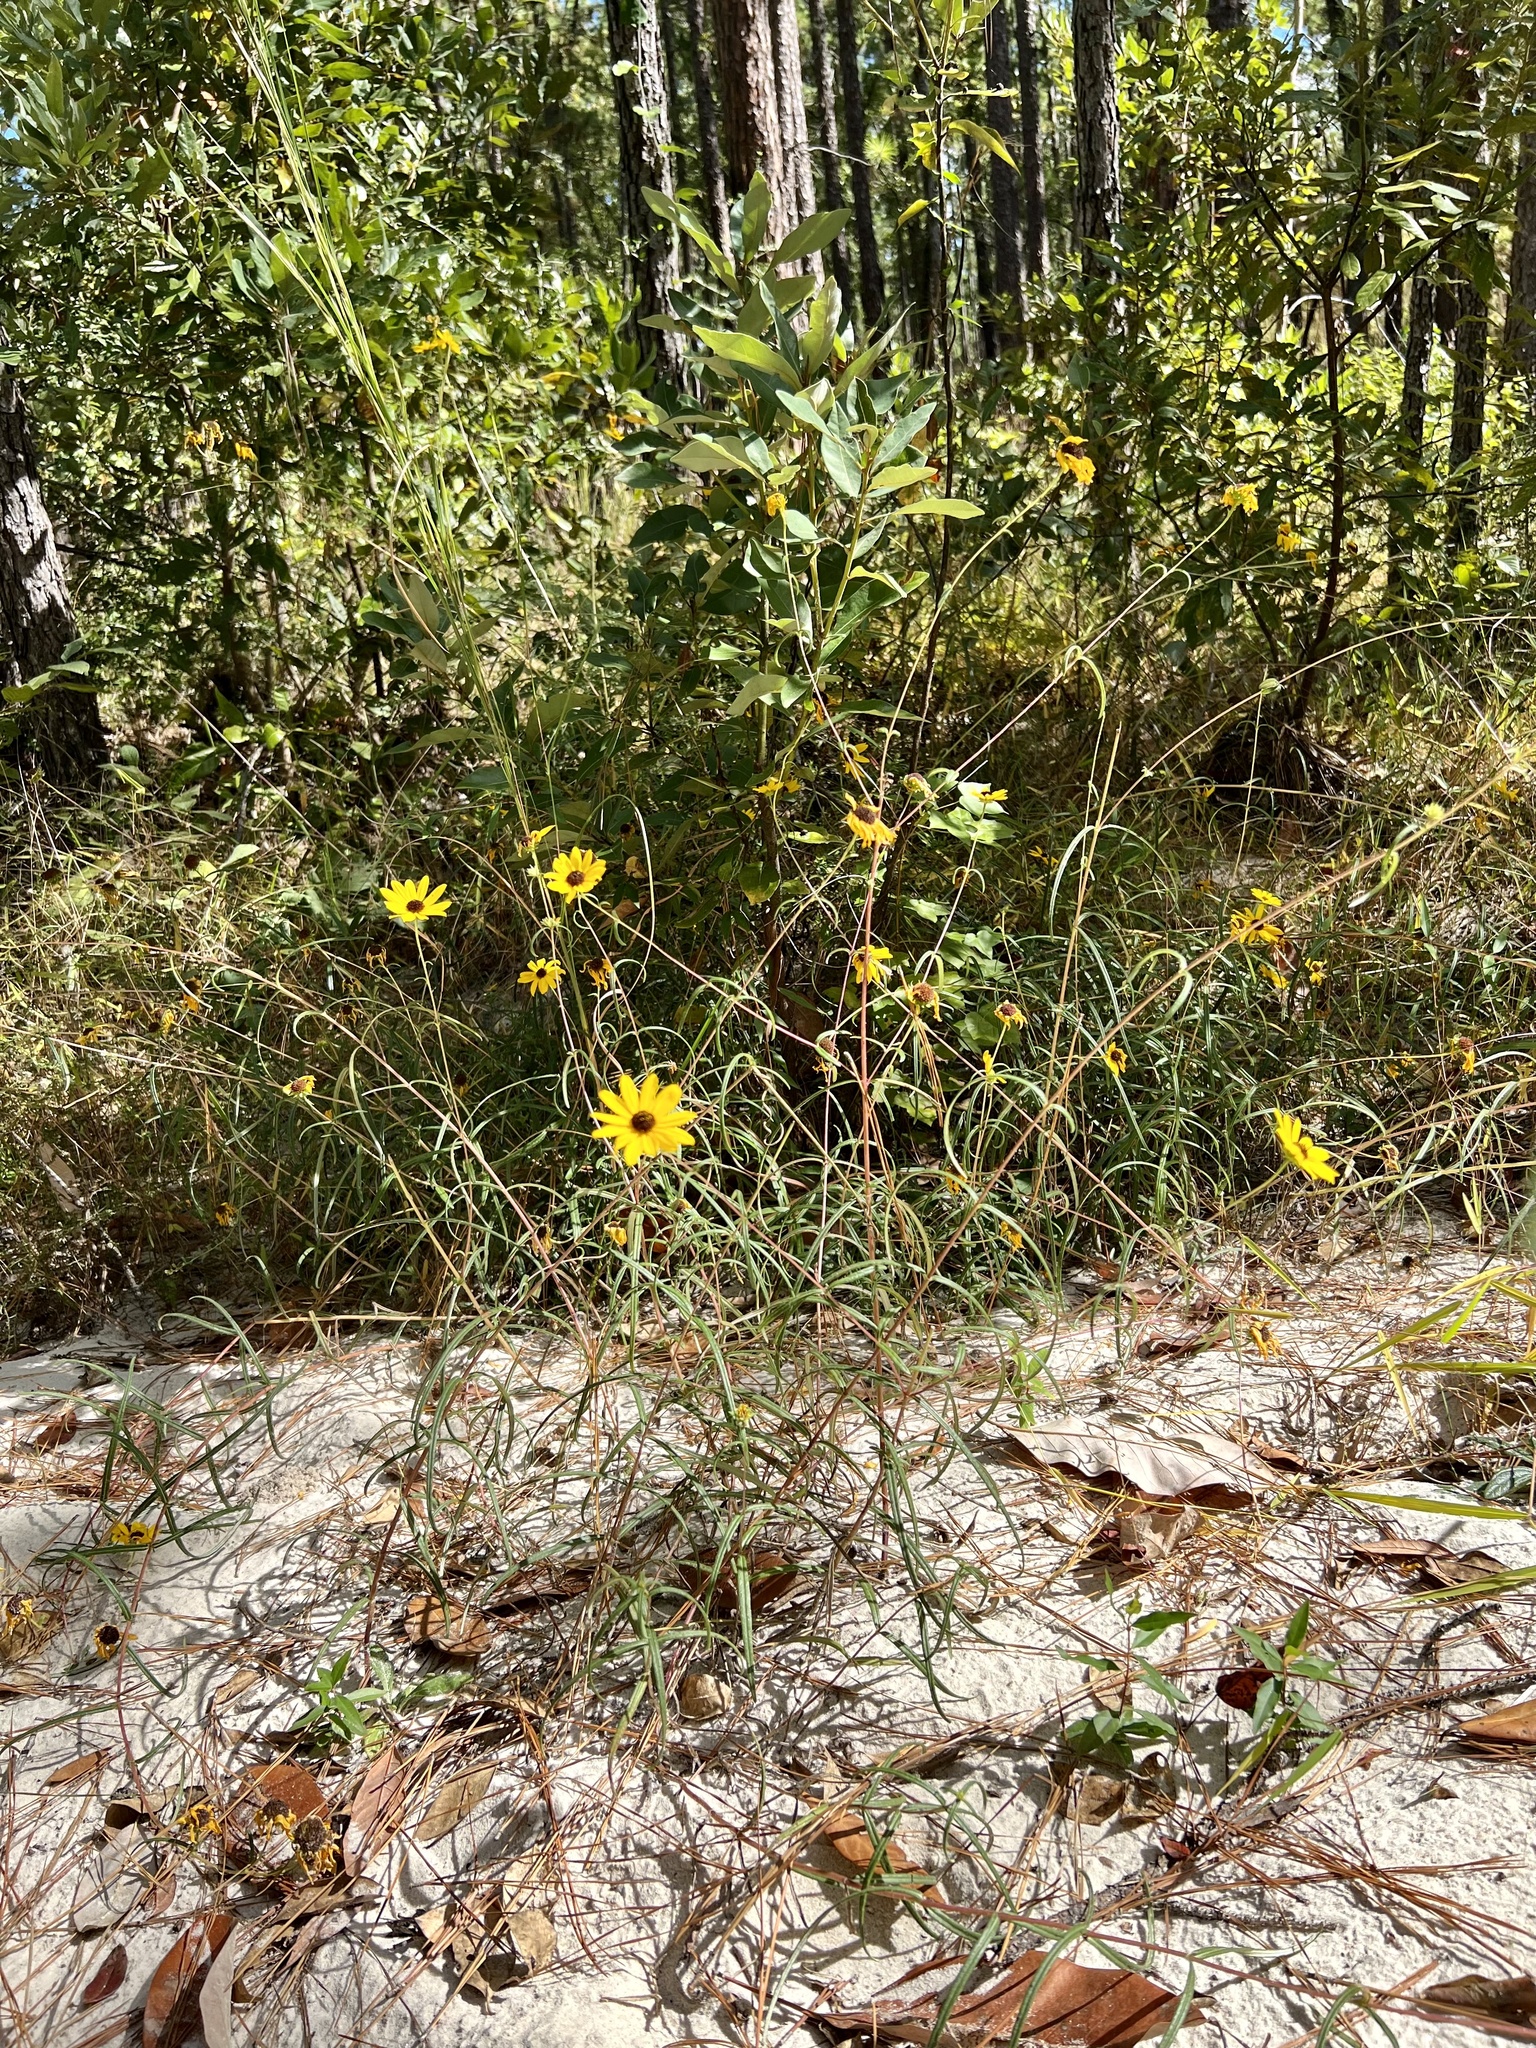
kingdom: Plantae
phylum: Tracheophyta
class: Magnoliopsida
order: Asterales
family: Asteraceae
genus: Helianthus
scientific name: Helianthus angustifolius
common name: Swamp sunflower
